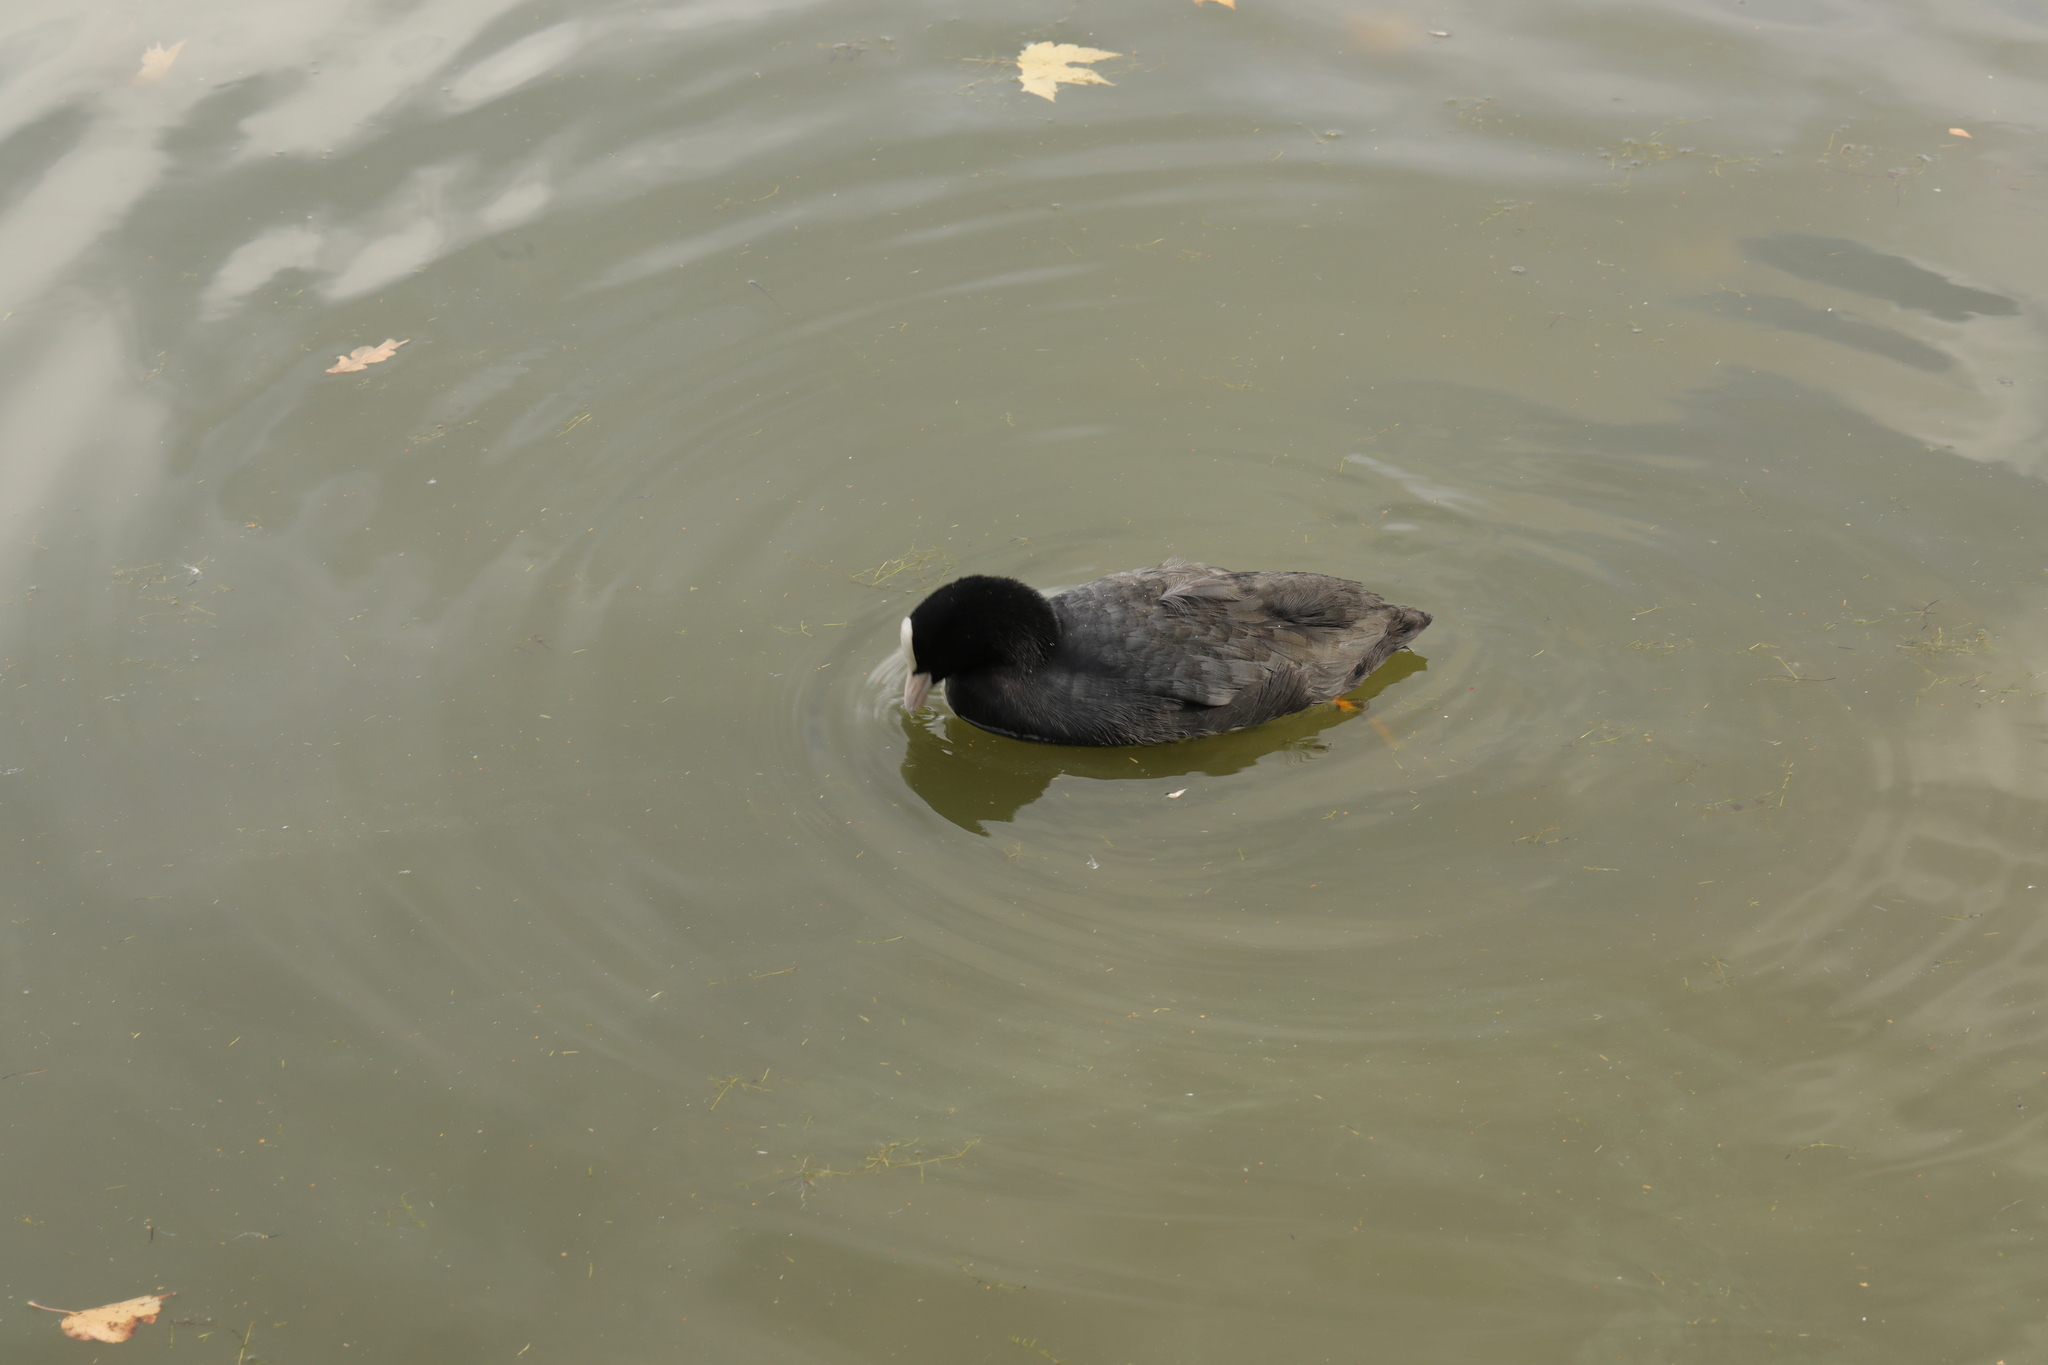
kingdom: Animalia
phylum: Chordata
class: Aves
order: Gruiformes
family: Rallidae
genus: Fulica
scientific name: Fulica atra
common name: Eurasian coot
